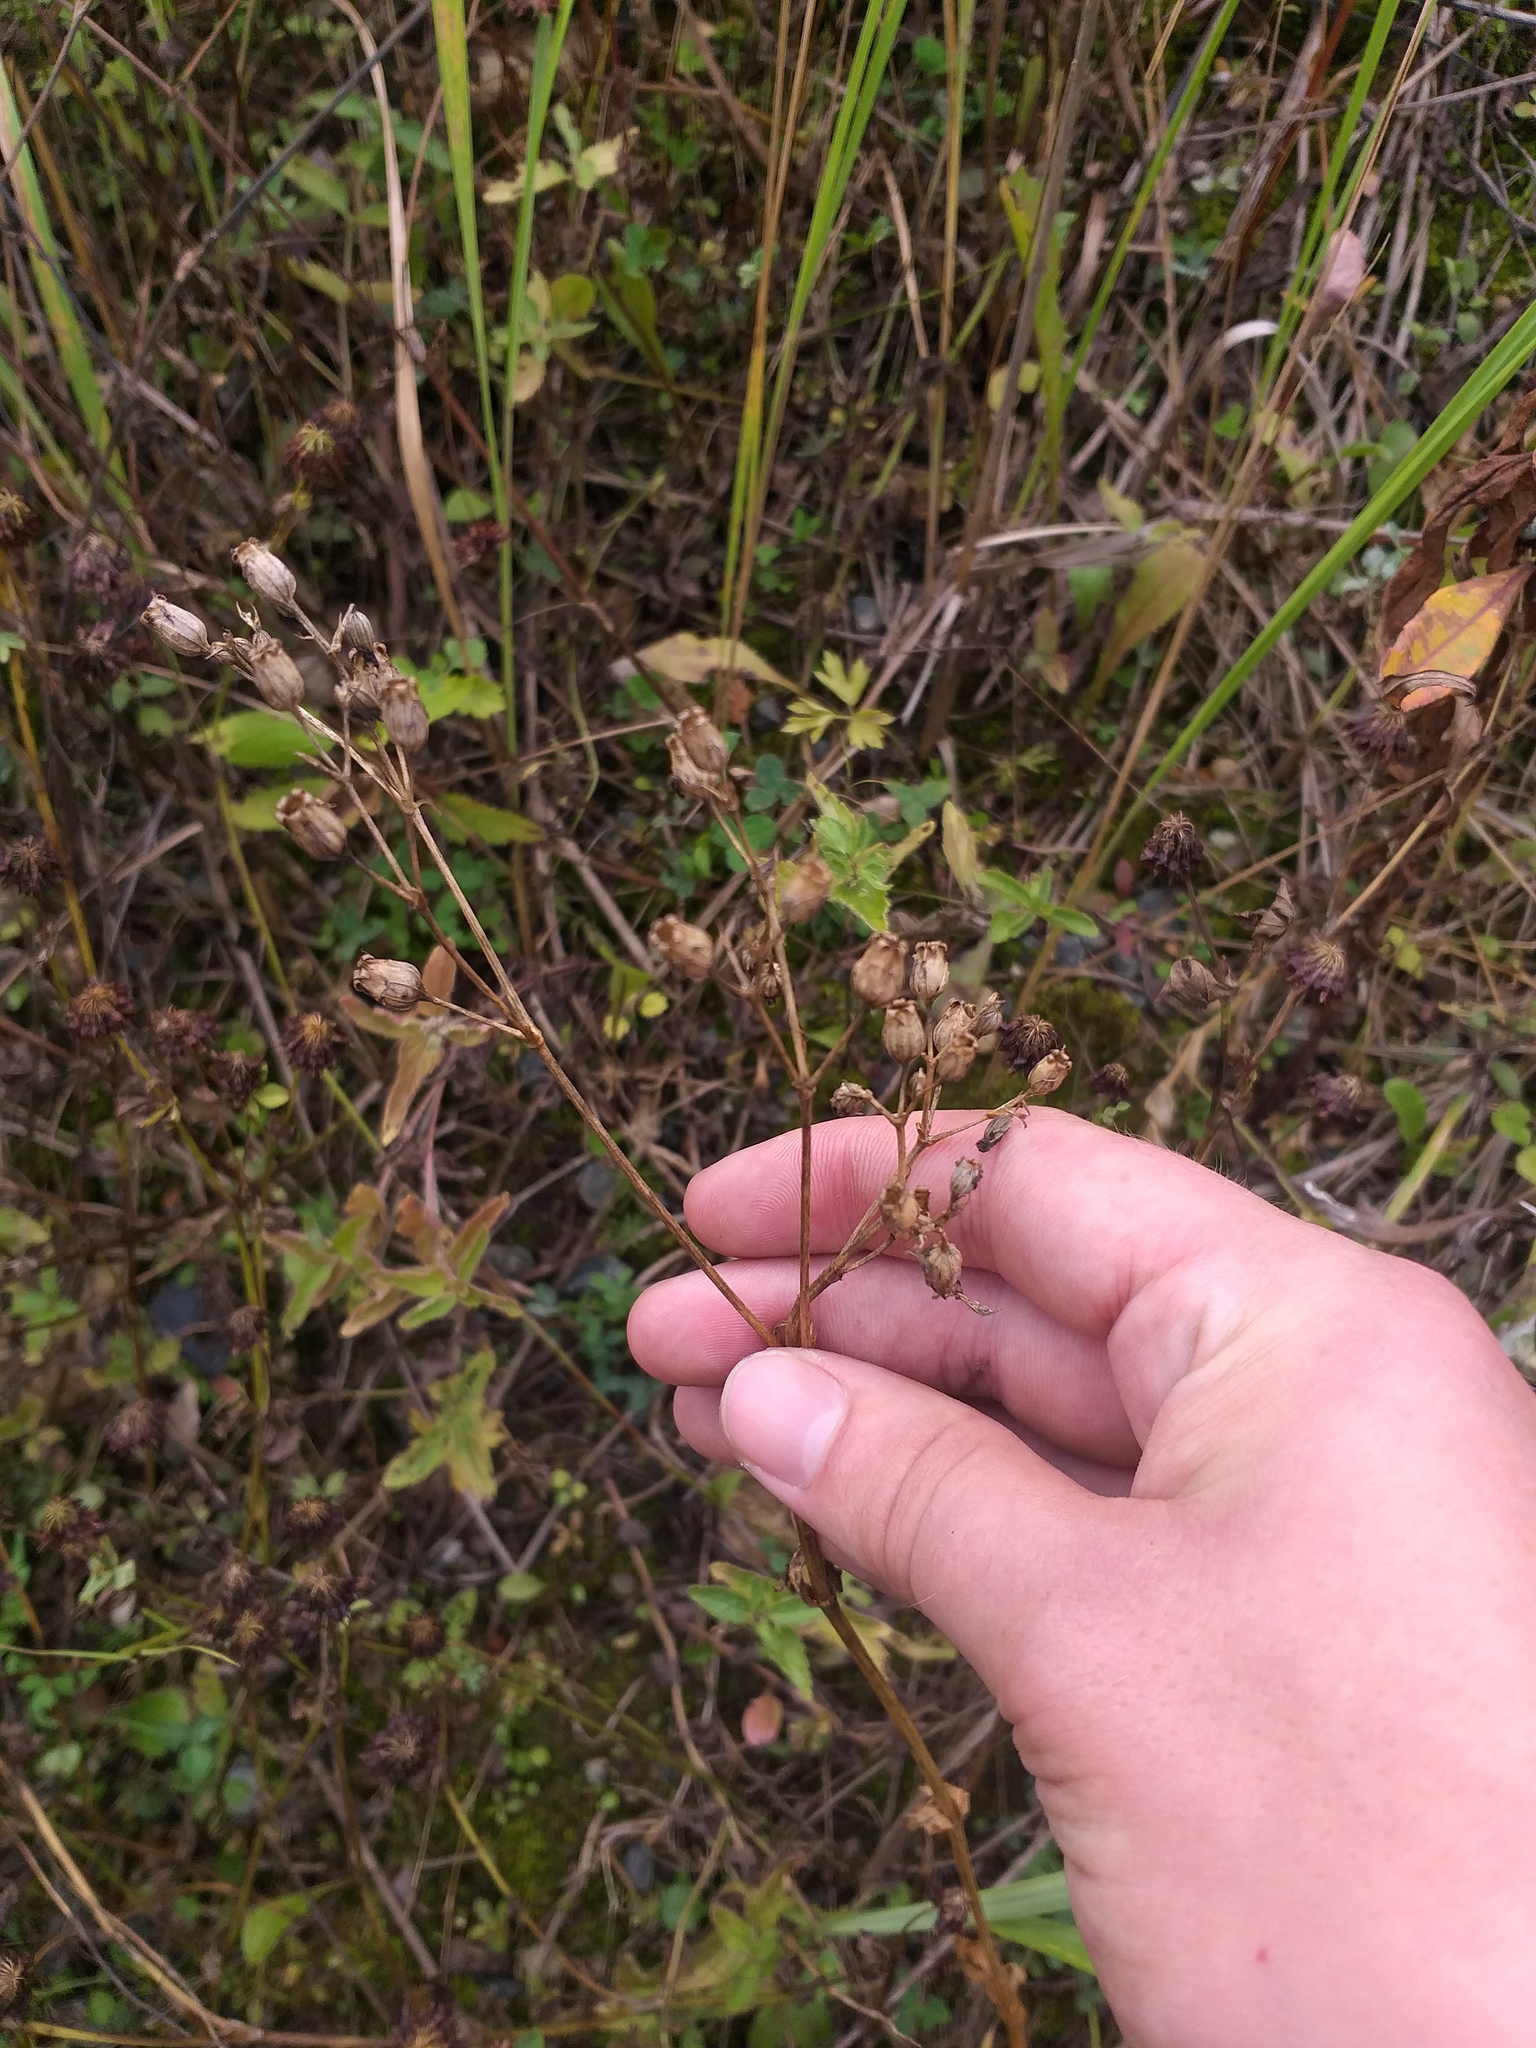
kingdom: Plantae
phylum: Tracheophyta
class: Magnoliopsida
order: Caryophyllales
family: Caryophyllaceae
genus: Silene
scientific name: Silene flos-cuculi
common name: Ragged-robin
